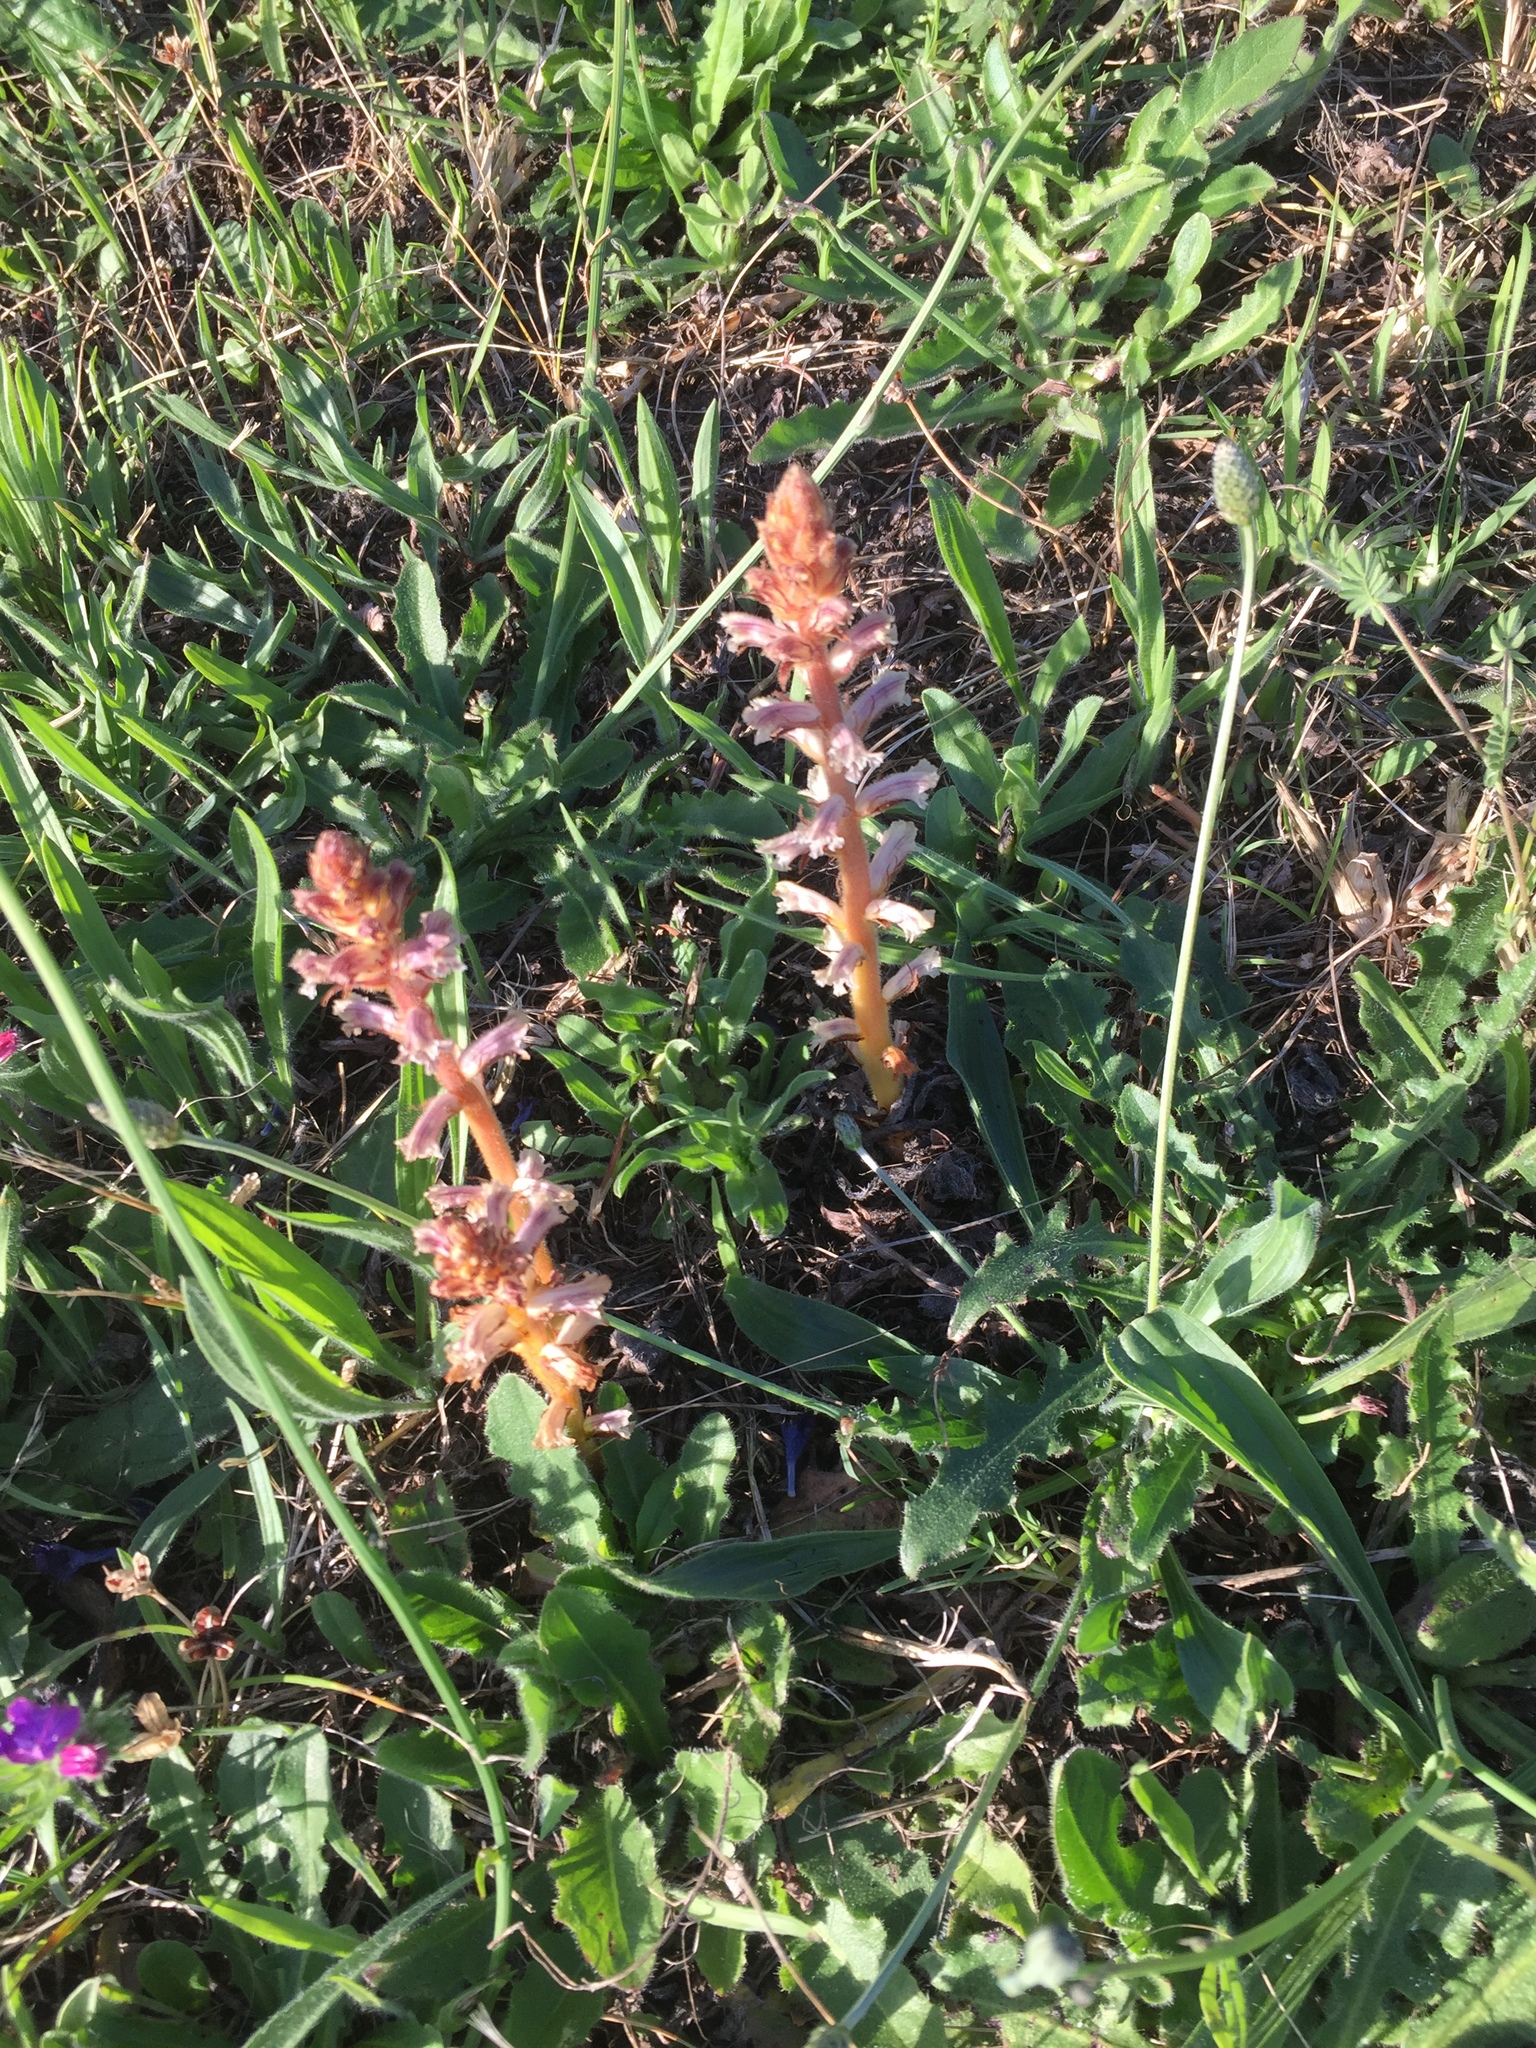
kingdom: Plantae
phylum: Tracheophyta
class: Magnoliopsida
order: Lamiales
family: Orobanchaceae
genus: Orobanche
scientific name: Orobanche minor
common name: Common broomrape
